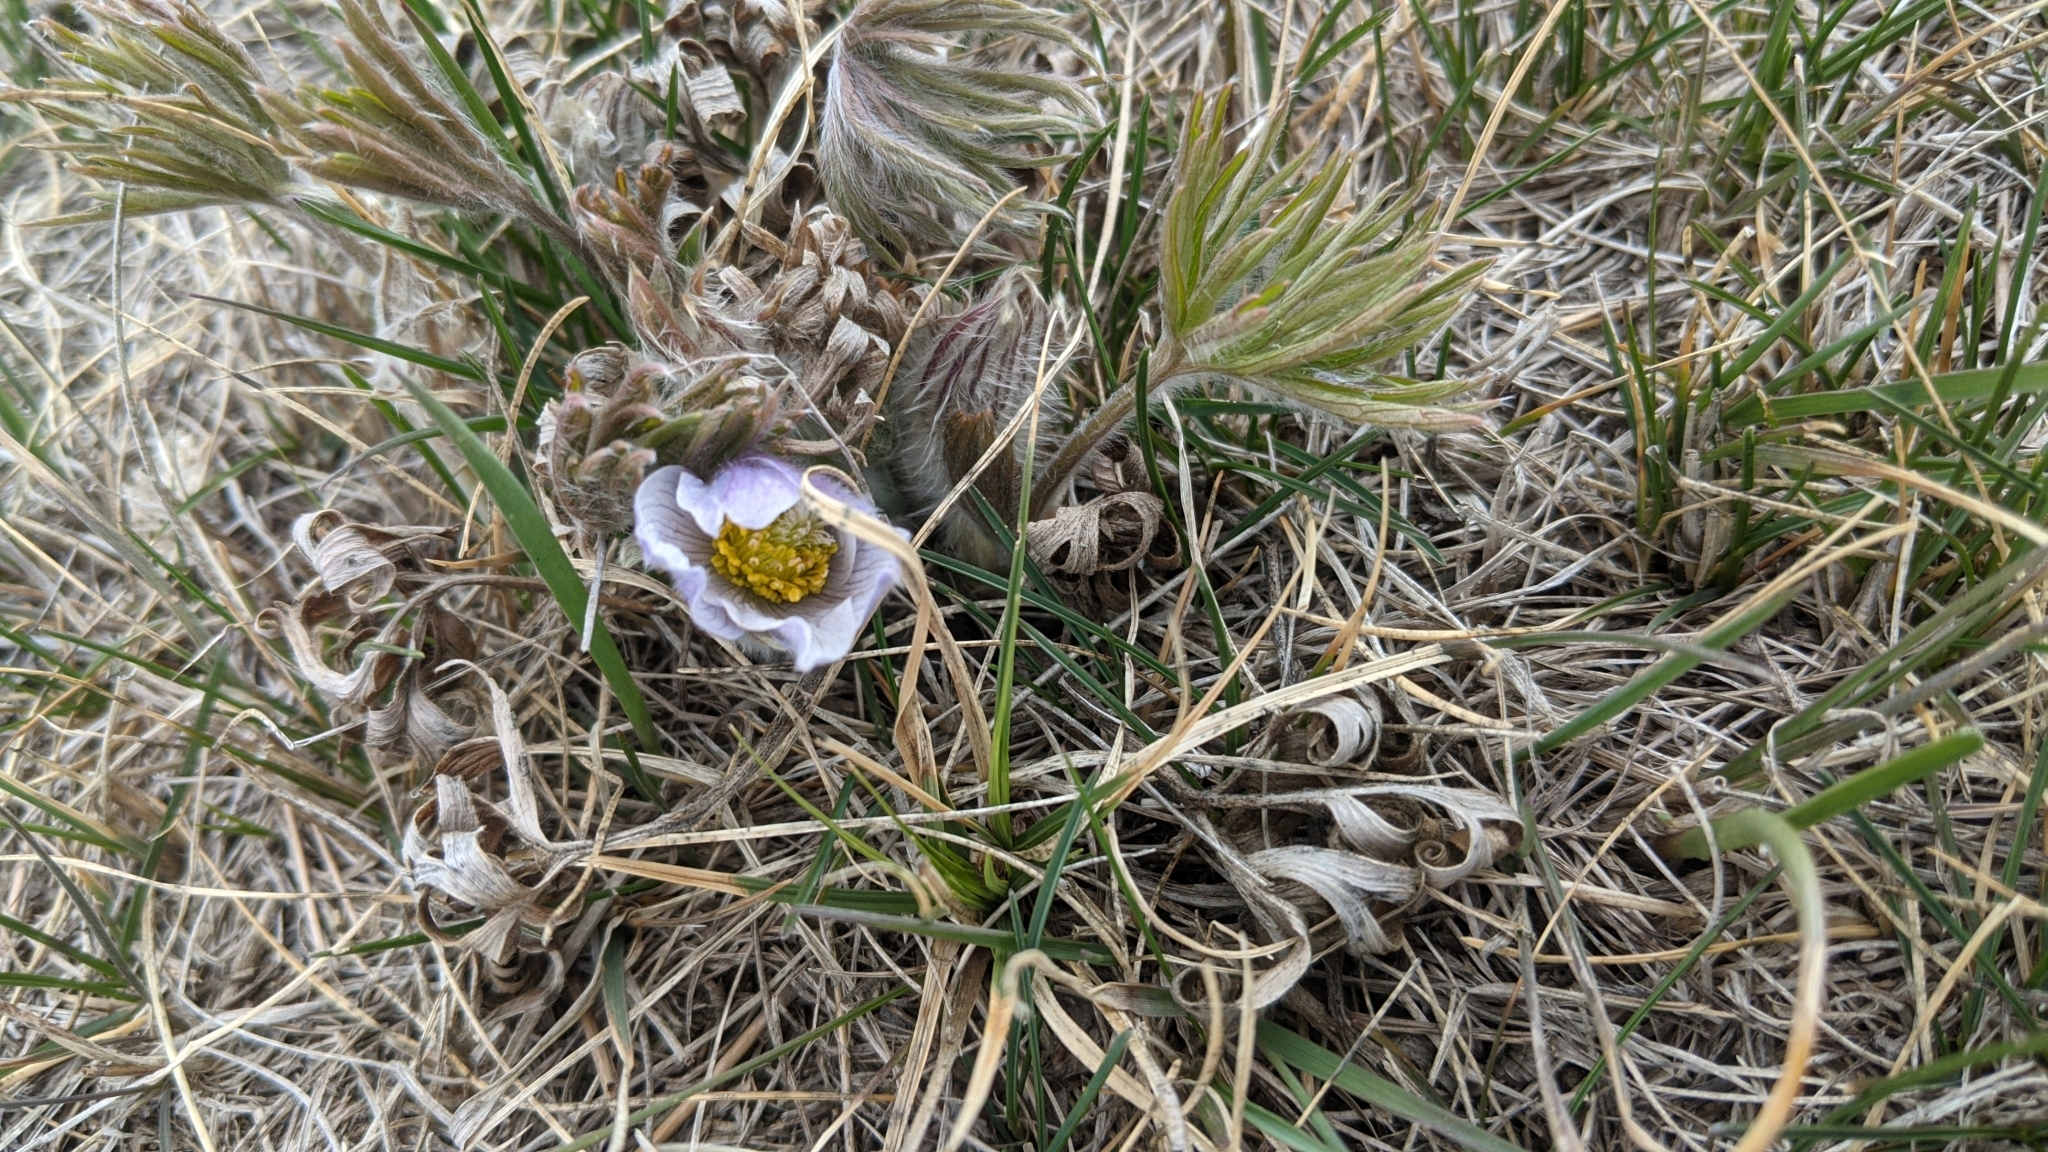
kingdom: Plantae
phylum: Tracheophyta
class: Magnoliopsida
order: Ranunculales
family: Ranunculaceae
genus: Pulsatilla
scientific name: Pulsatilla nuttalliana
